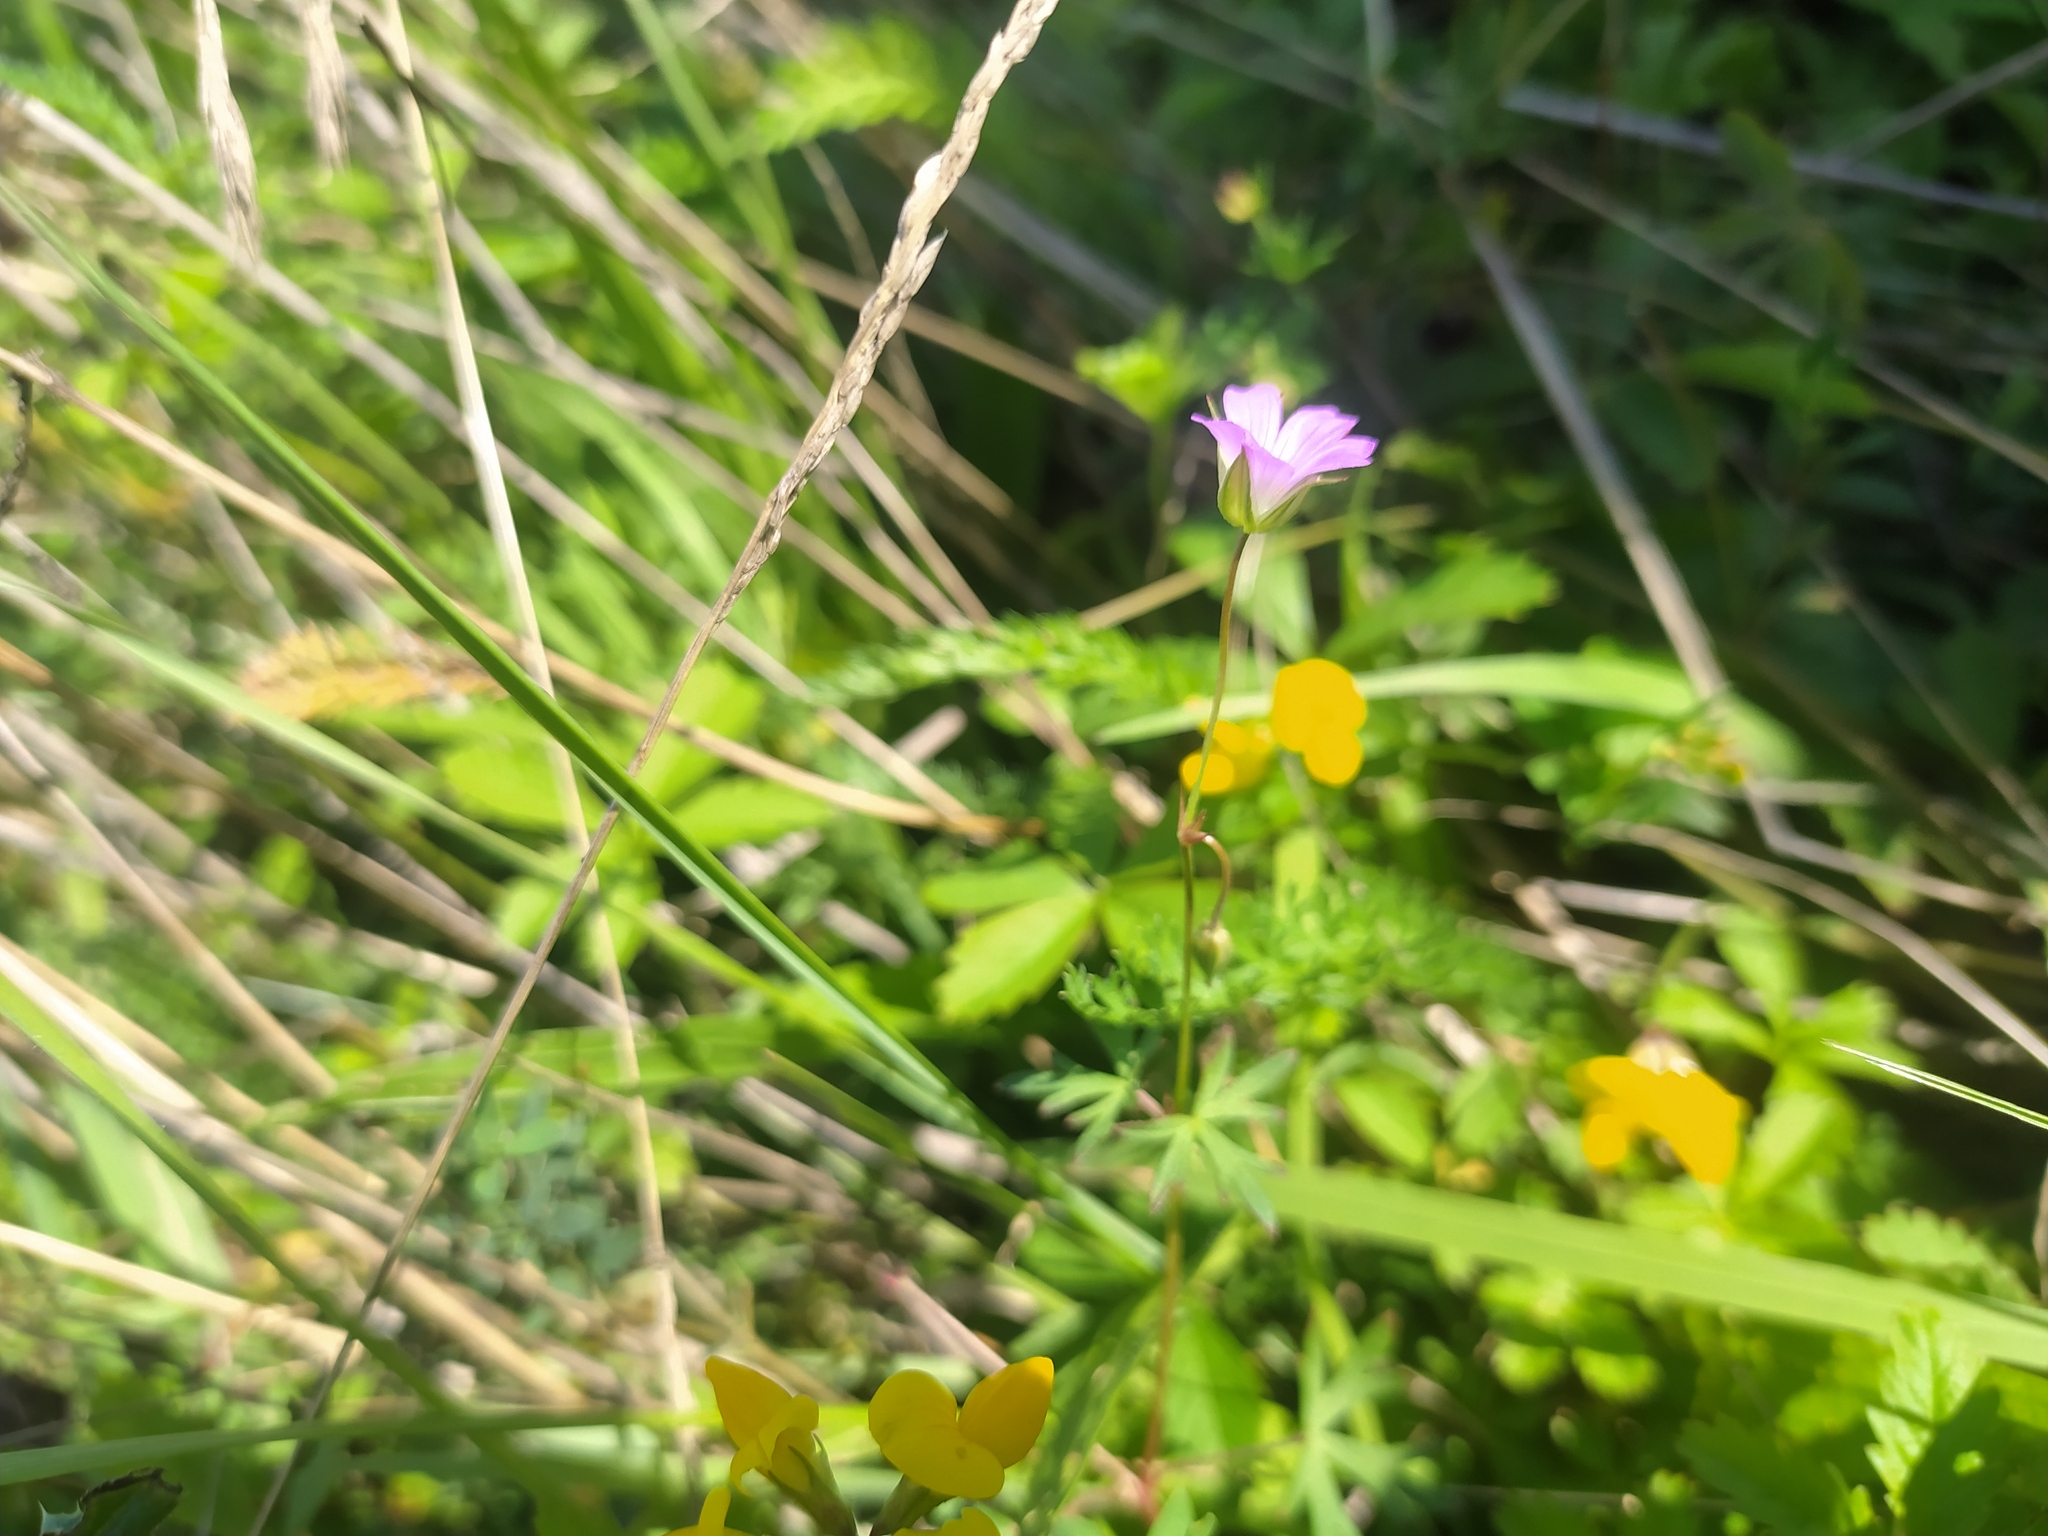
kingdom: Plantae
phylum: Tracheophyta
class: Magnoliopsida
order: Geraniales
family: Geraniaceae
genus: Geranium
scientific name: Geranium columbinum
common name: Long-stalked crane's-bill
